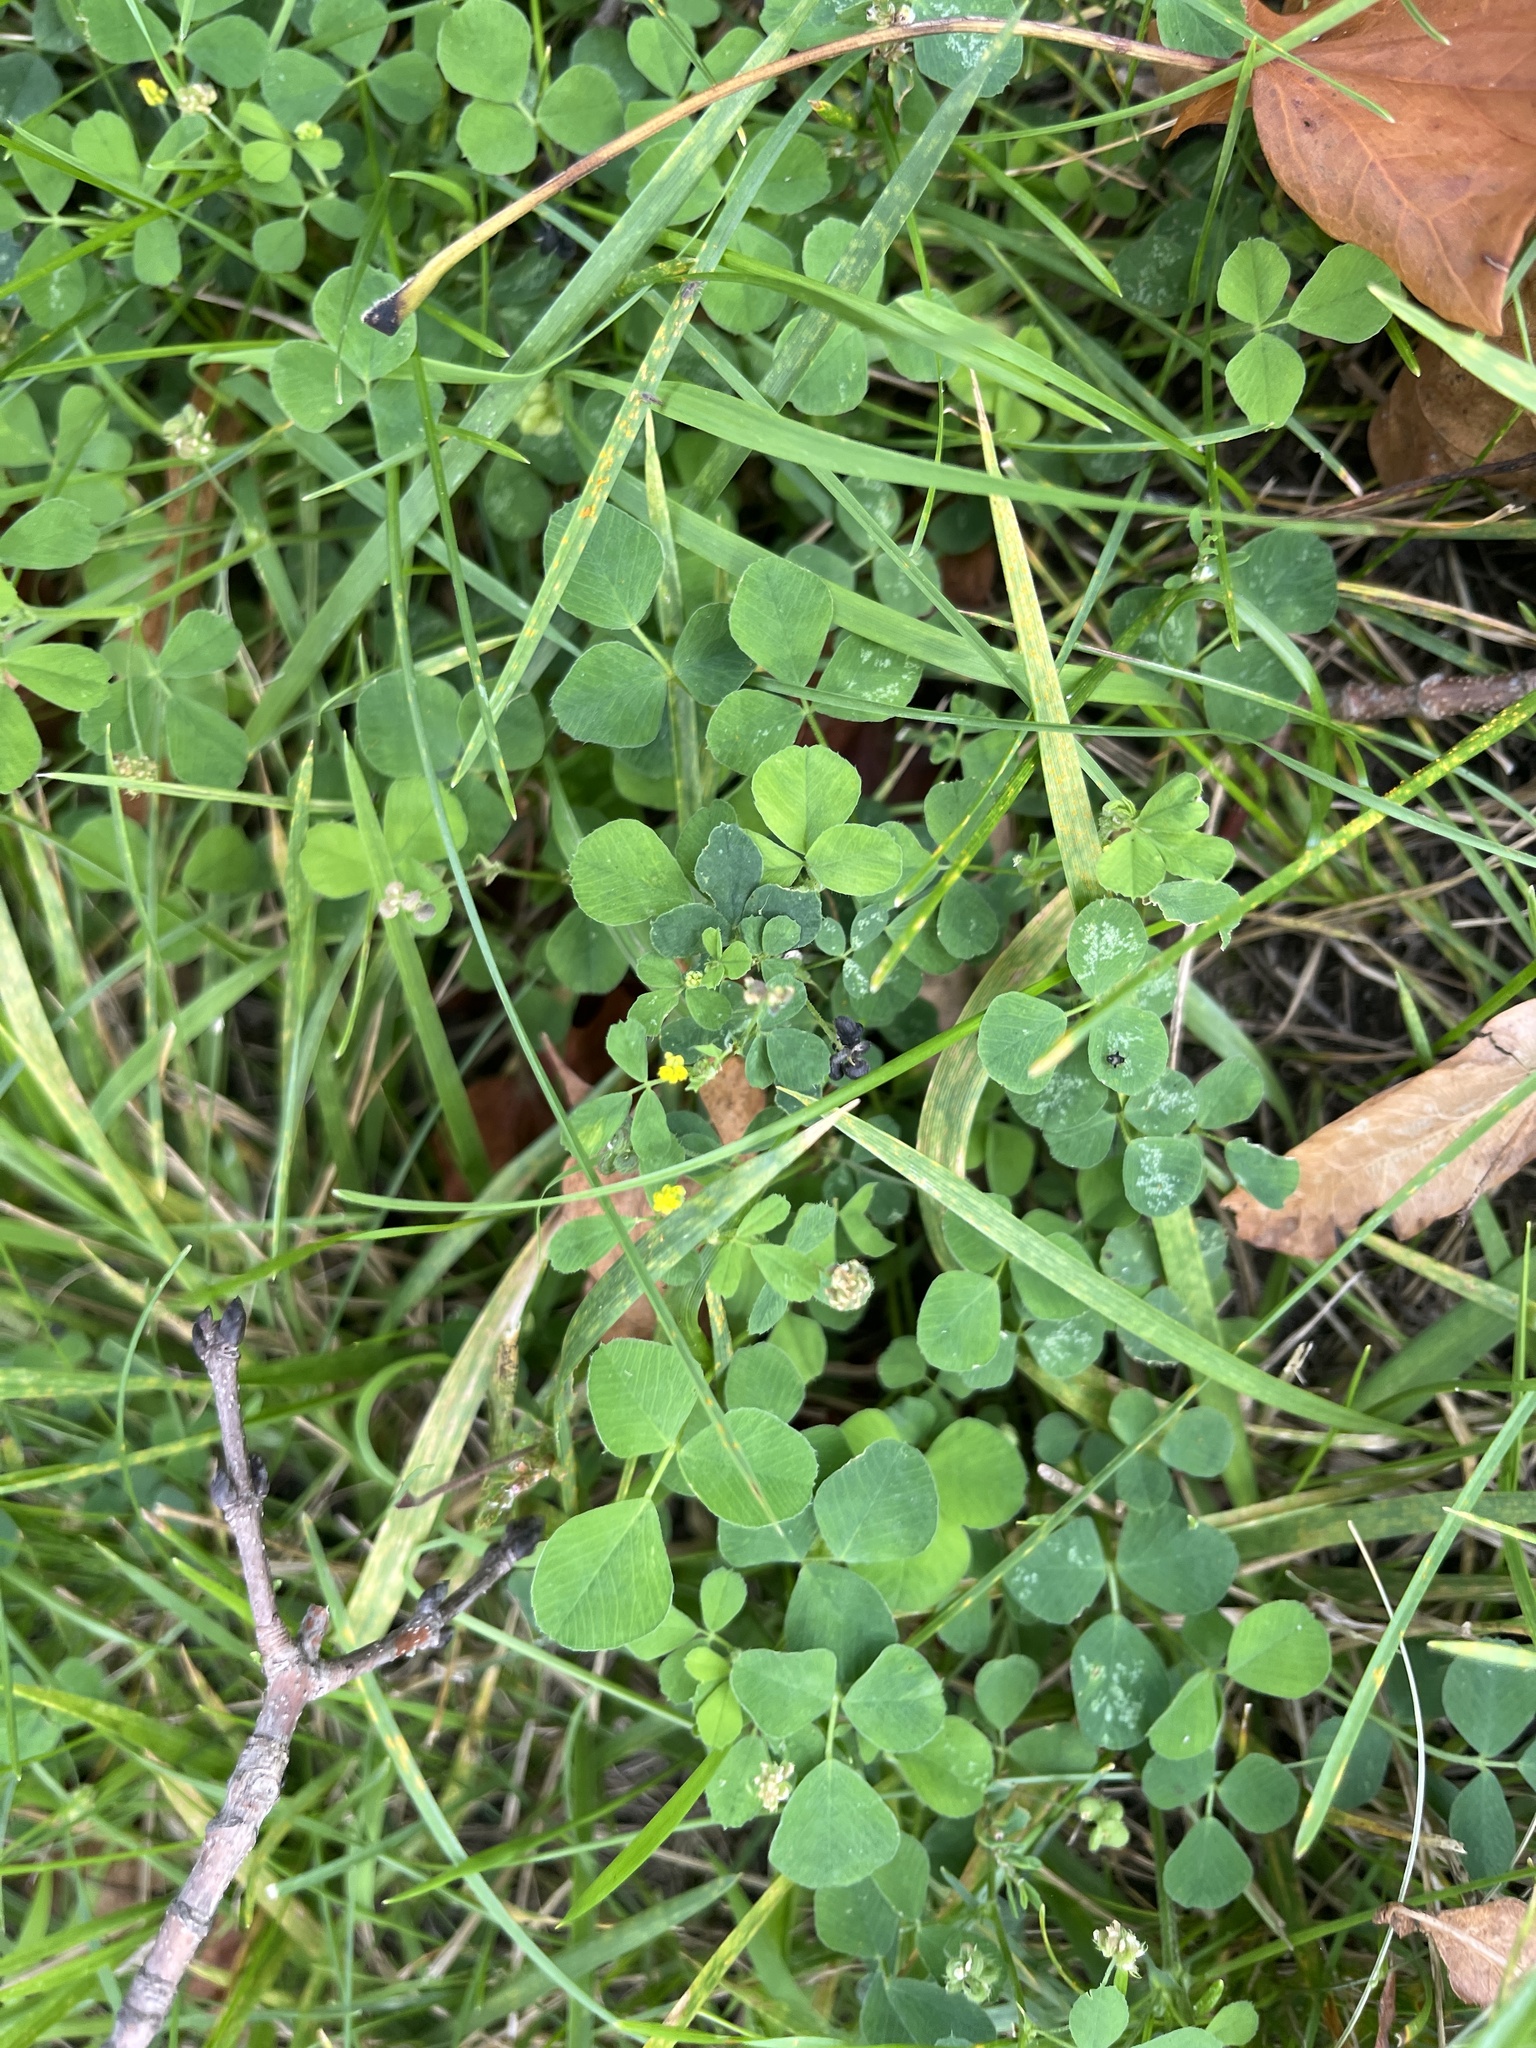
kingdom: Plantae
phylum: Tracheophyta
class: Magnoliopsida
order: Fabales
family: Fabaceae
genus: Medicago
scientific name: Medicago lupulina
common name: Black medick
